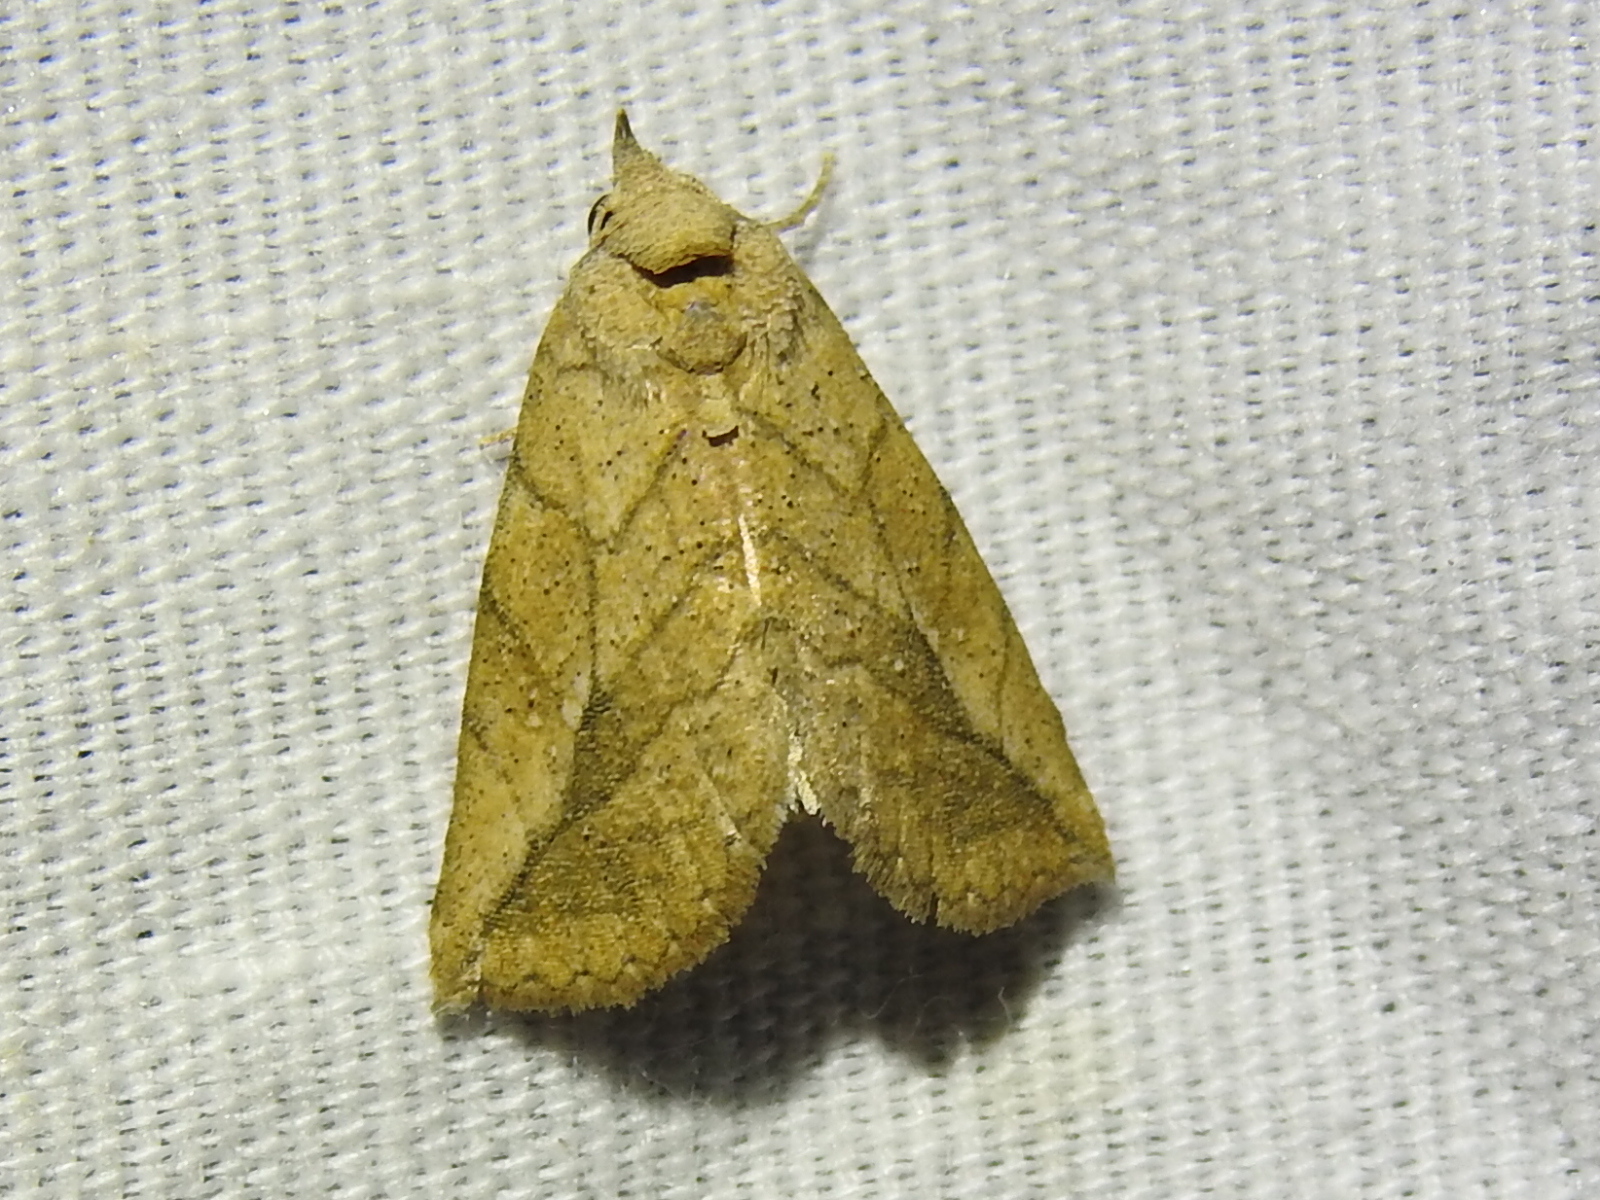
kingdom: Animalia
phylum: Arthropoda
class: Insecta
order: Lepidoptera
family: Erebidae
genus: Isogona
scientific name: Isogona snowi
